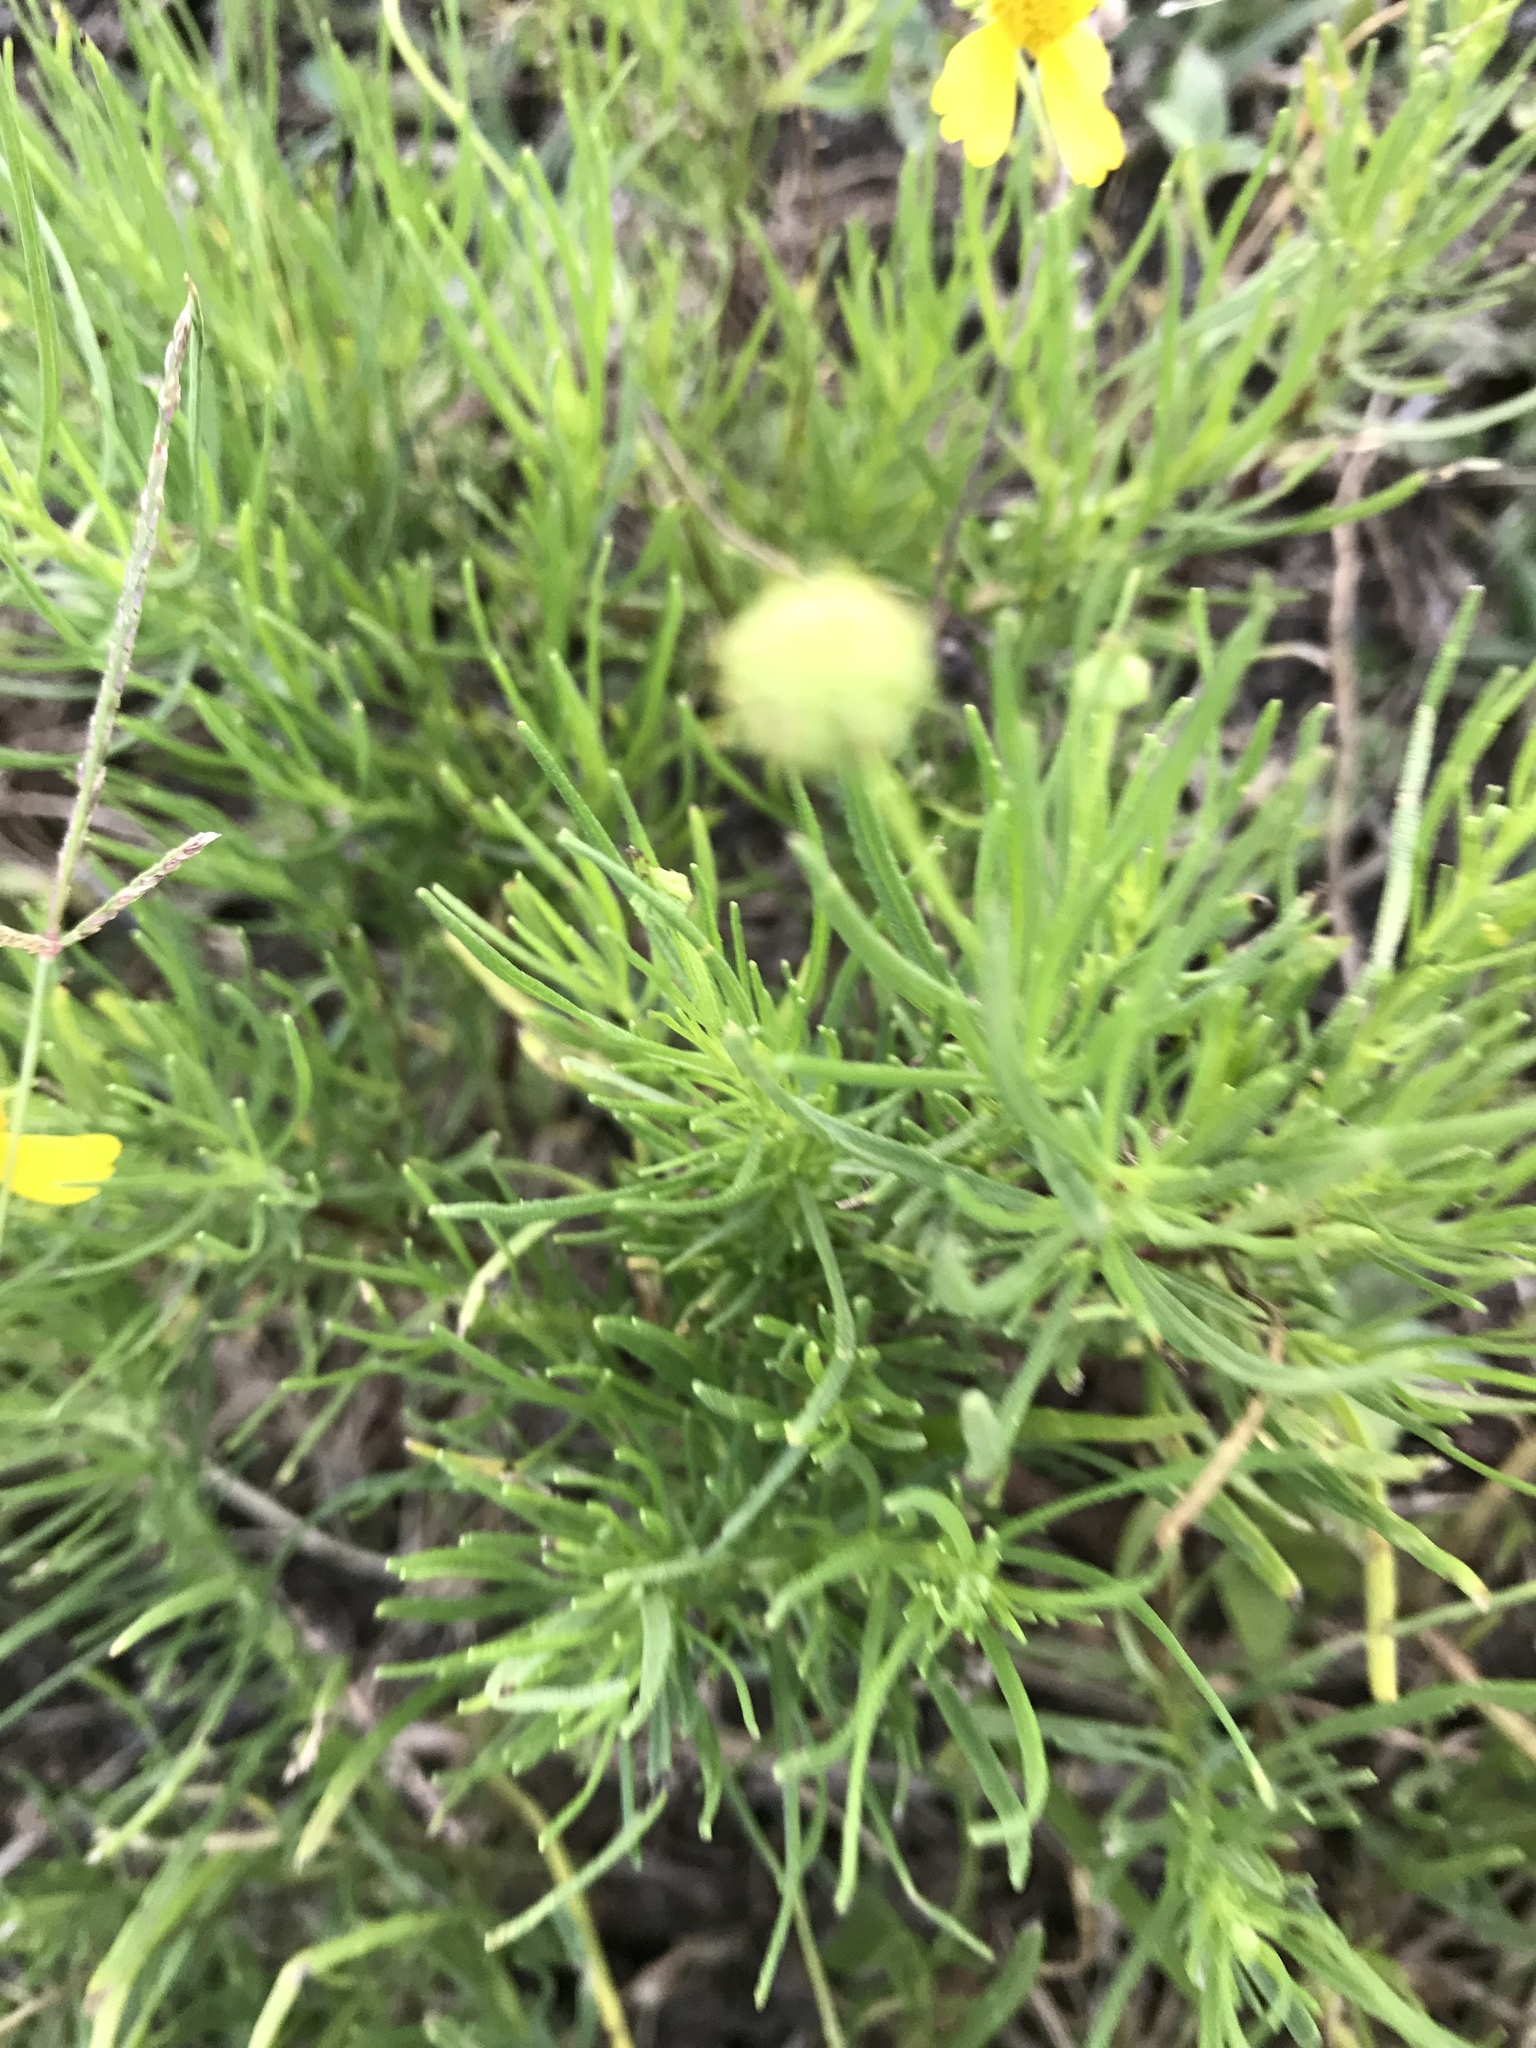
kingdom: Plantae
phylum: Tracheophyta
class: Magnoliopsida
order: Asterales
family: Asteraceae
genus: Helenium
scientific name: Helenium amarum
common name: Bitter sneezeweed
